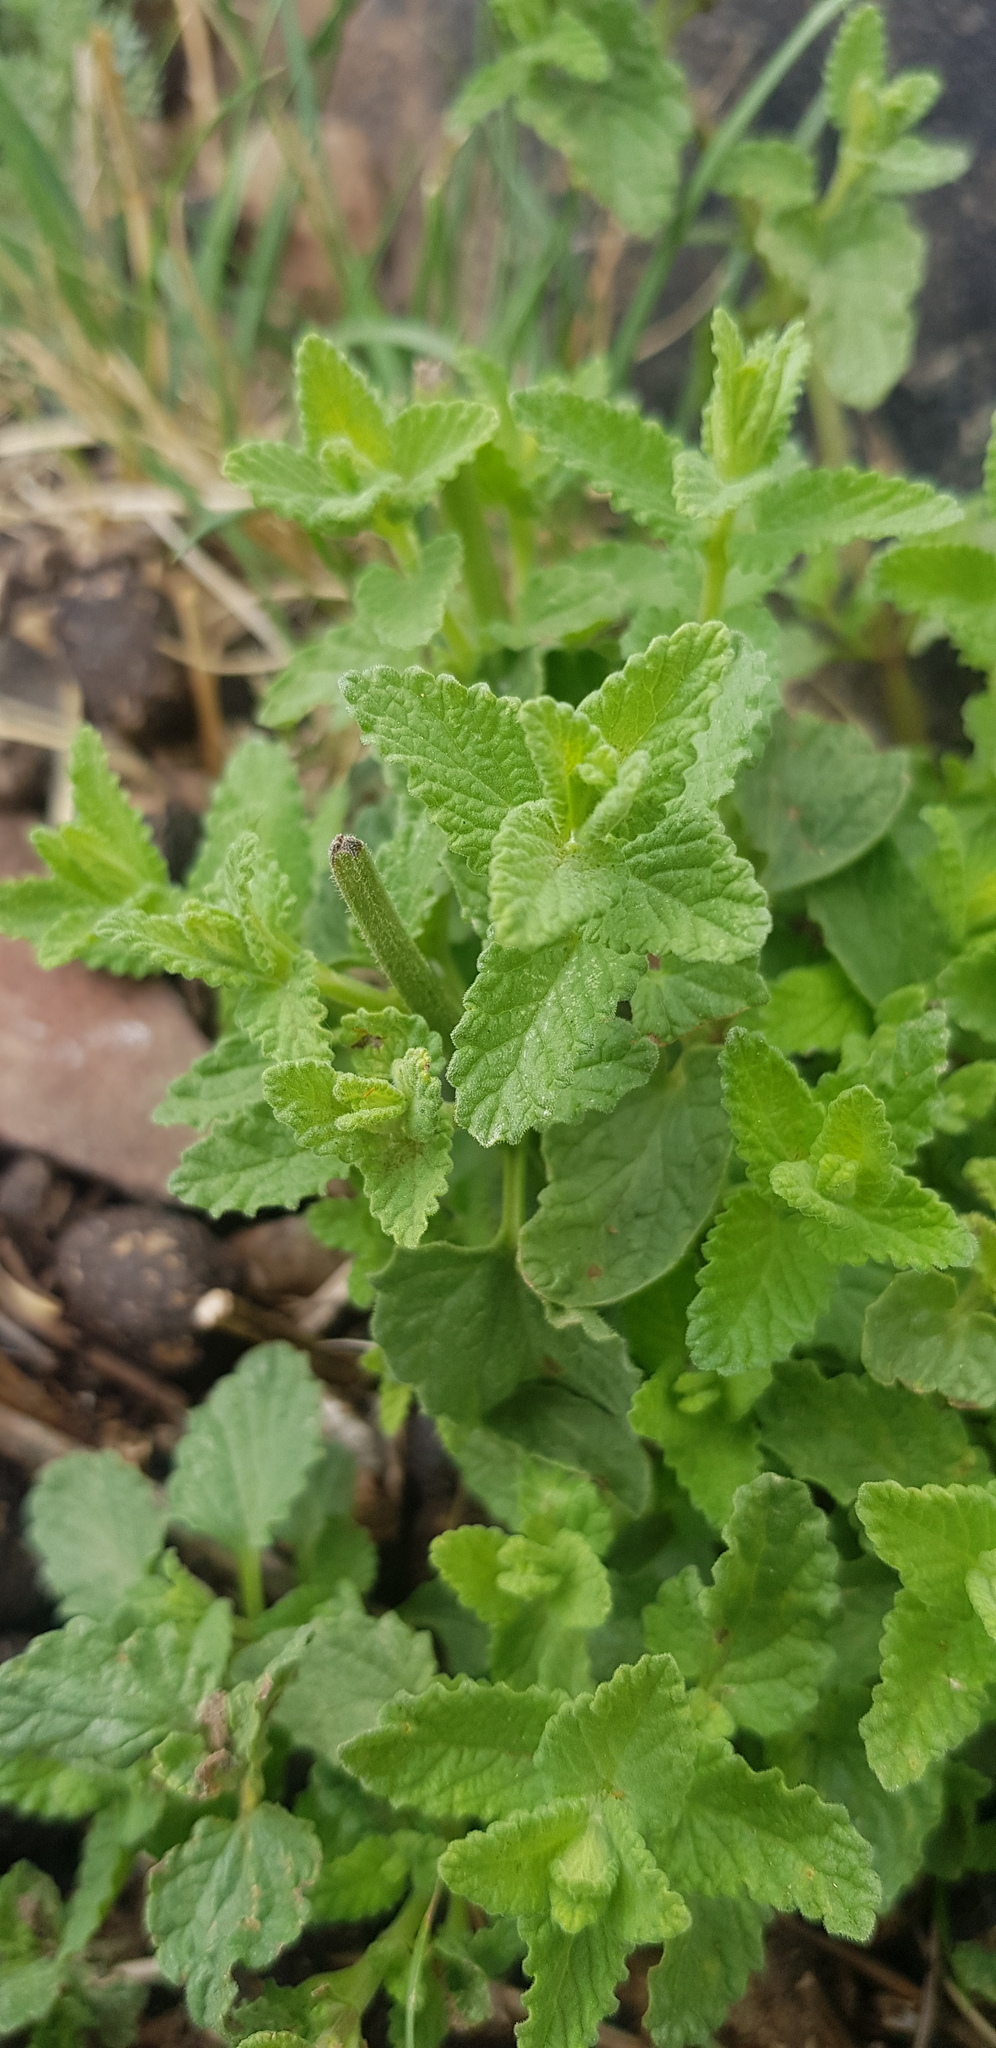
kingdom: Plantae
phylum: Tracheophyta
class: Magnoliopsida
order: Lamiales
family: Lamiaceae
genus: Nepeta
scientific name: Nepeta lophanthus
